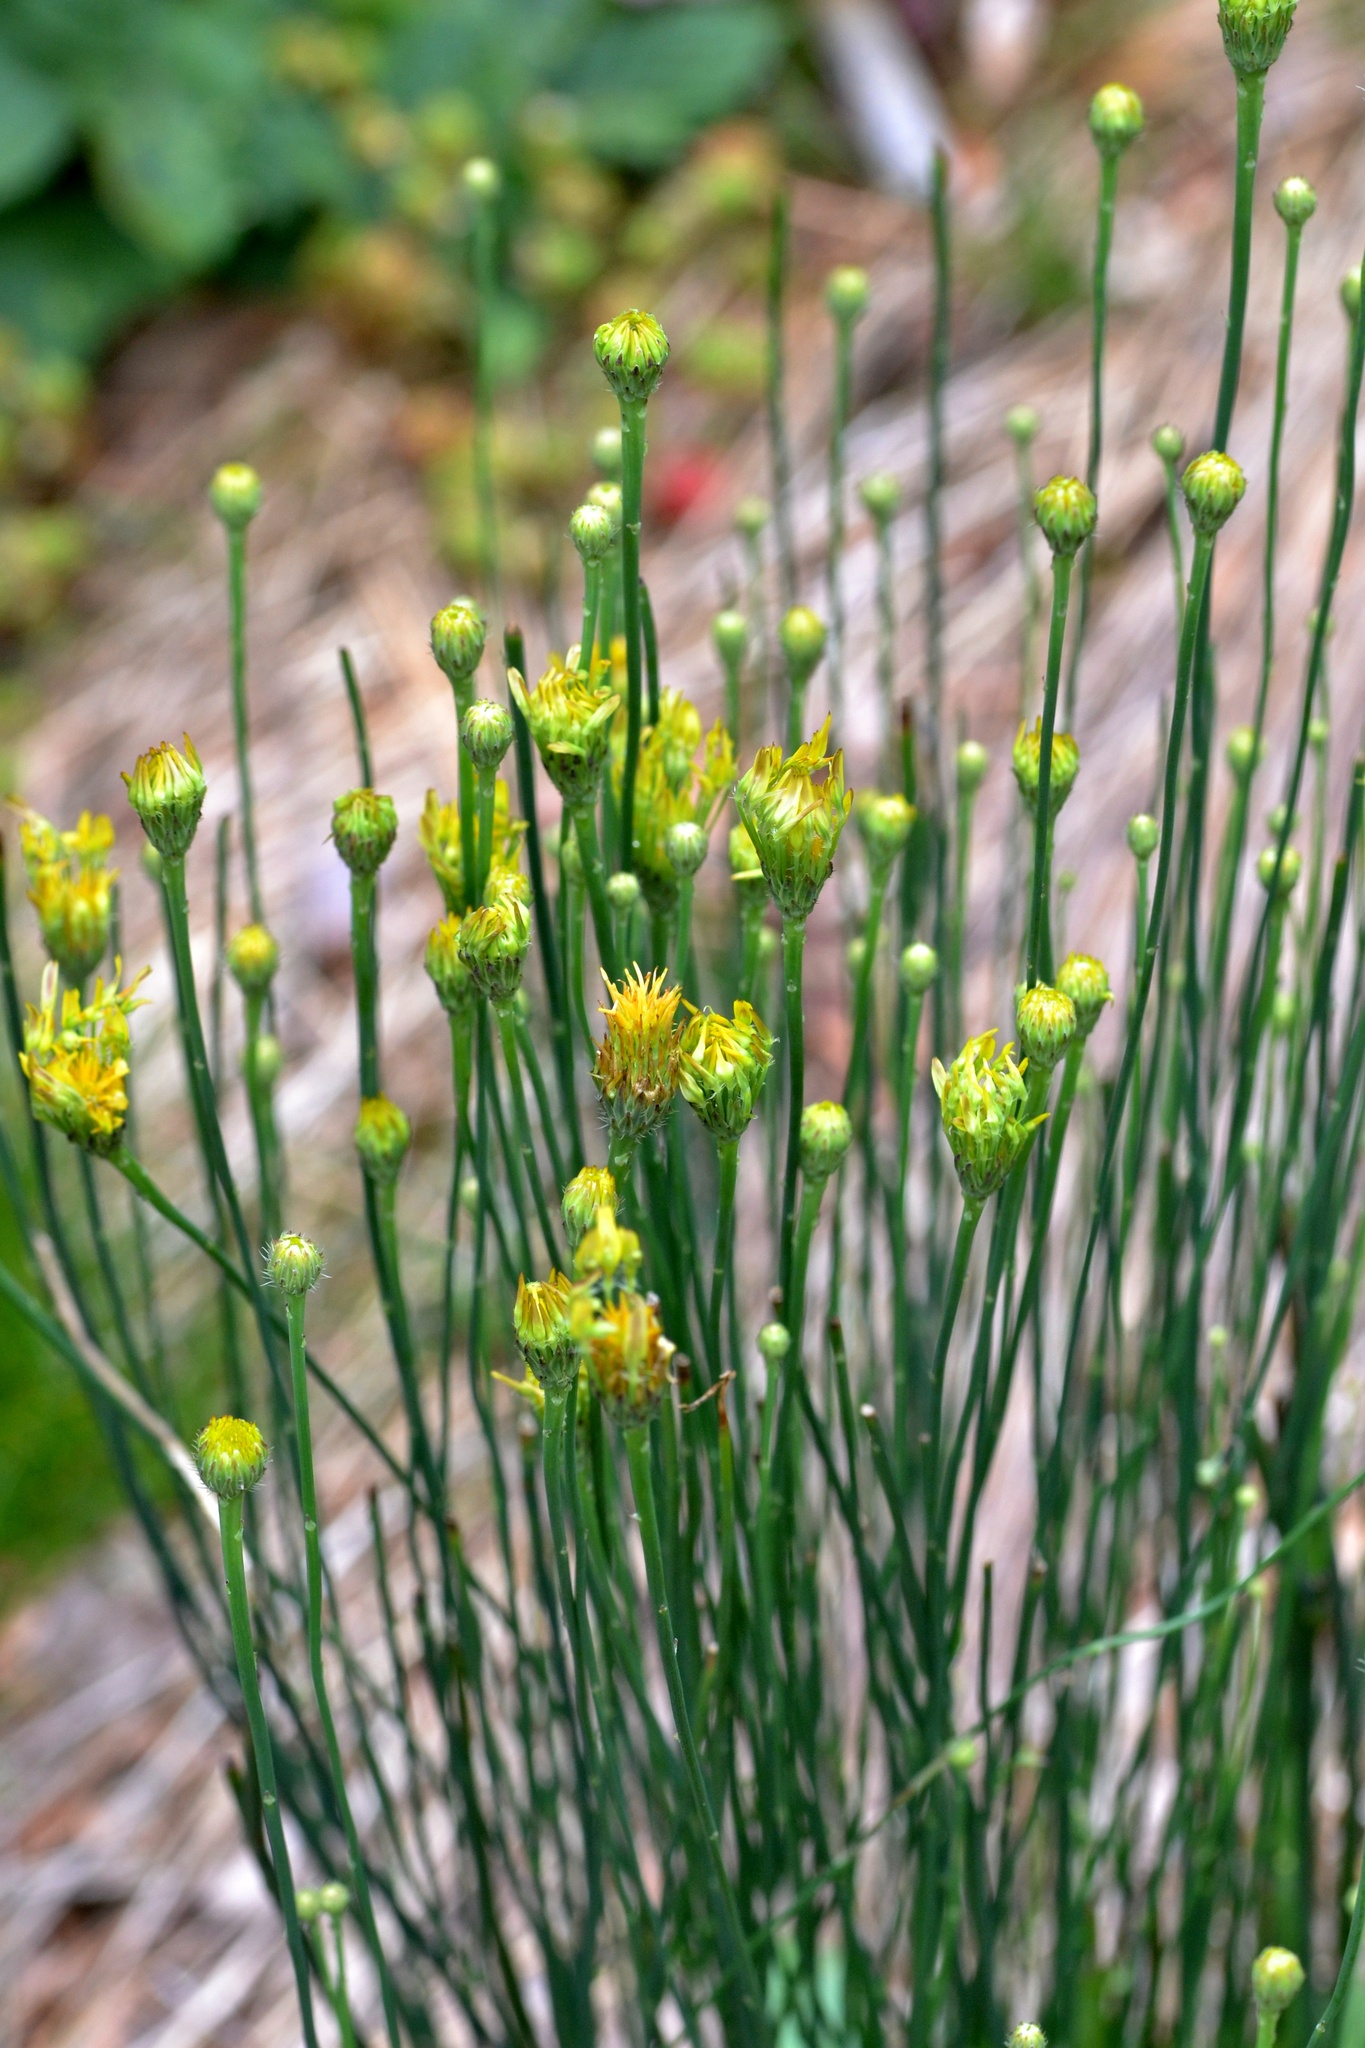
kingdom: Plantae
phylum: Tracheophyta
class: Magnoliopsida
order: Asterales
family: Asteraceae
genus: Hypochaeris
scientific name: Hypochaeris radicata
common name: Flatweed
